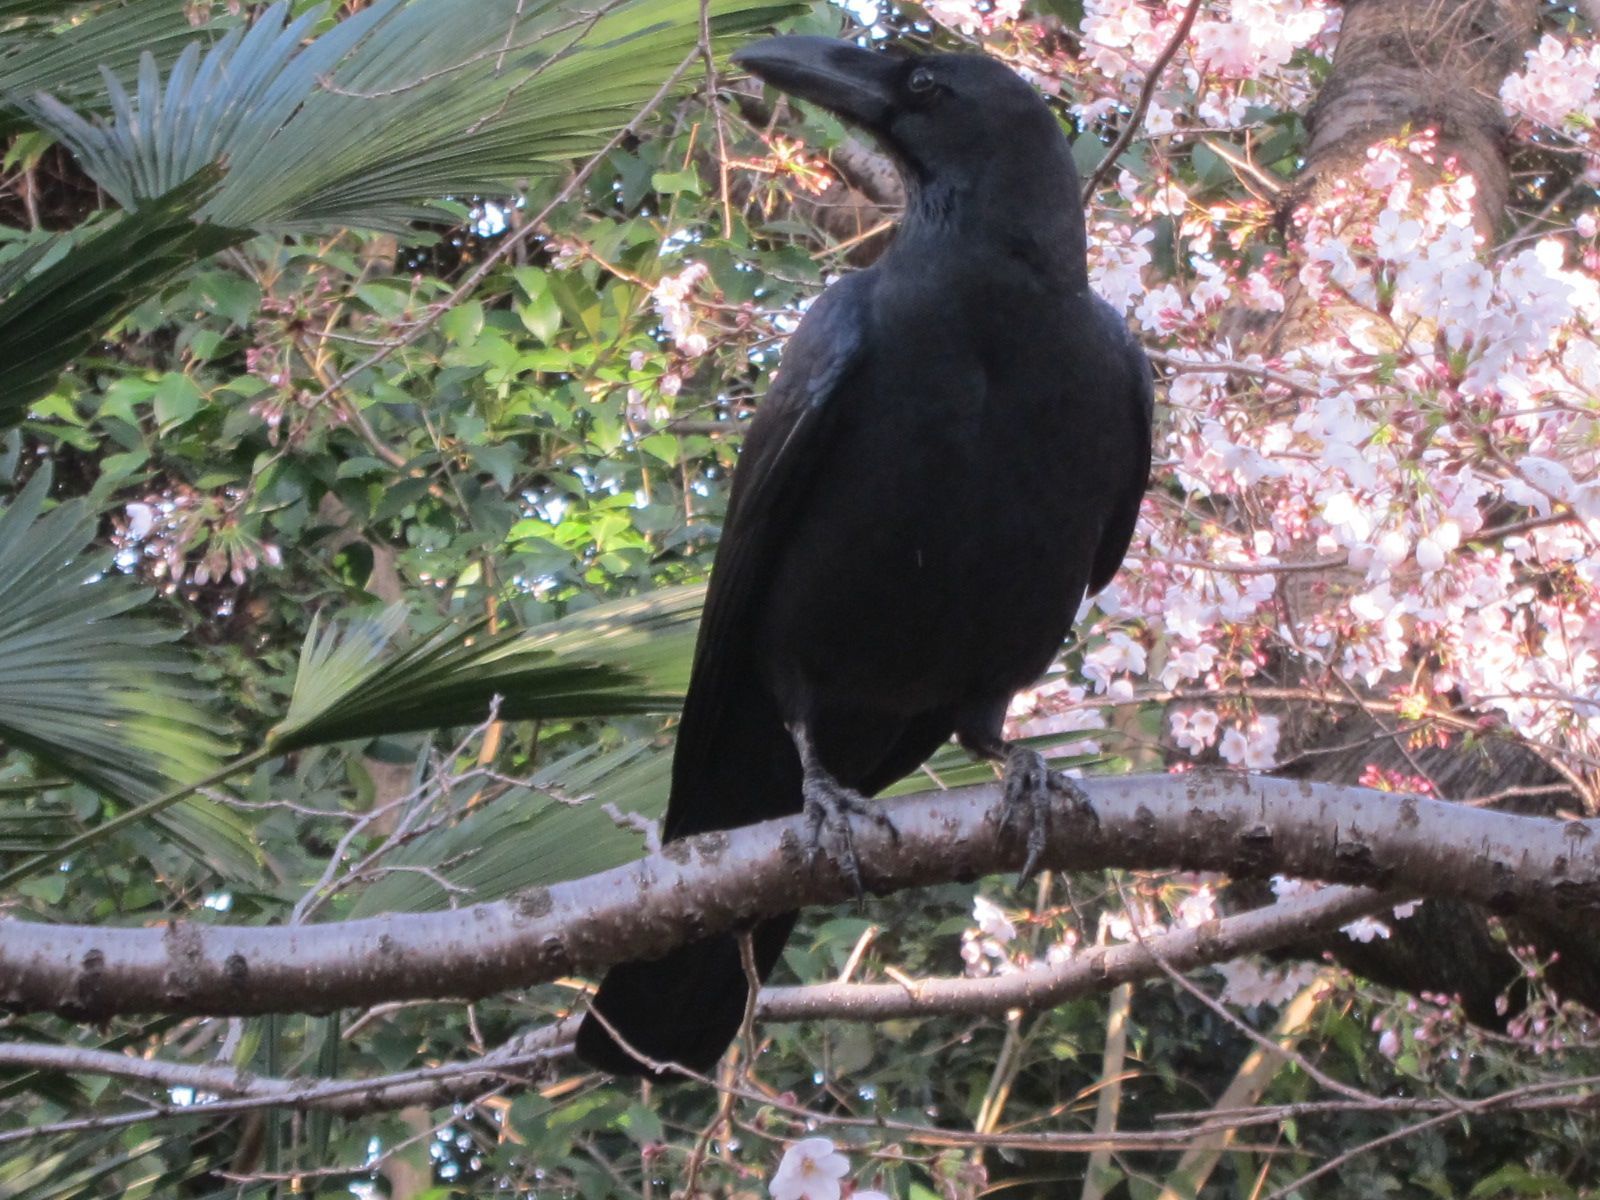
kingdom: Animalia
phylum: Chordata
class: Aves
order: Passeriformes
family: Corvidae
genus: Corvus
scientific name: Corvus macrorhynchos
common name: Large-billed crow
